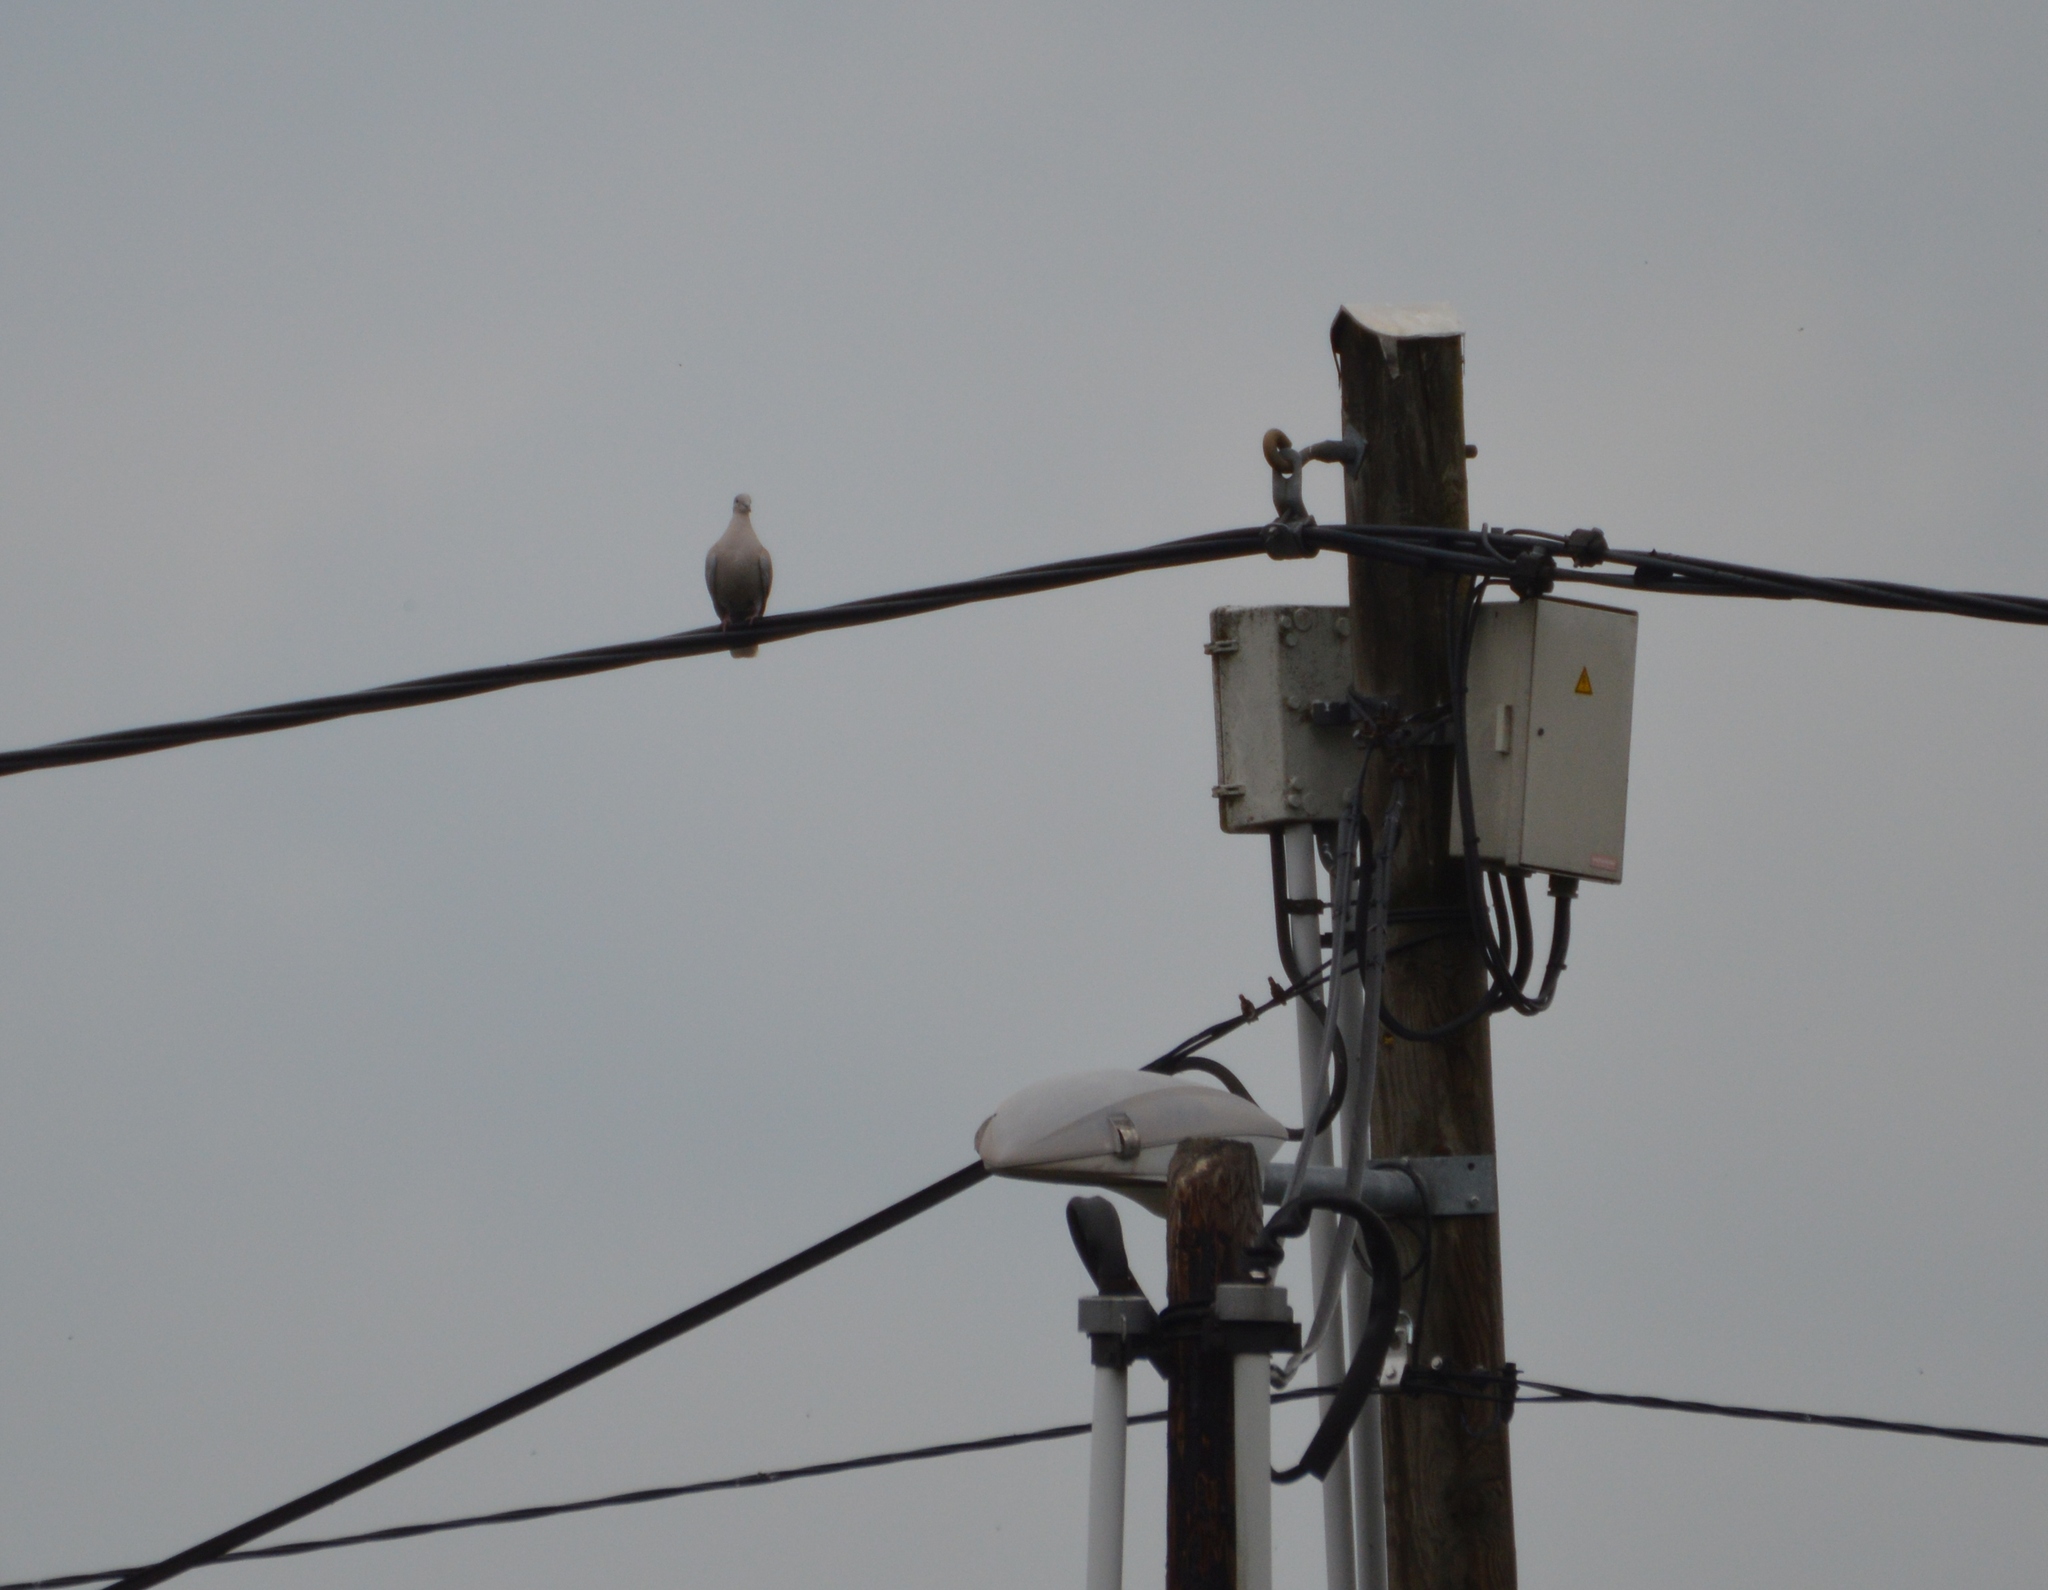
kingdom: Animalia
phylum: Chordata
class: Aves
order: Columbiformes
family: Columbidae
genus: Streptopelia
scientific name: Streptopelia decaocto
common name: Eurasian collared dove
